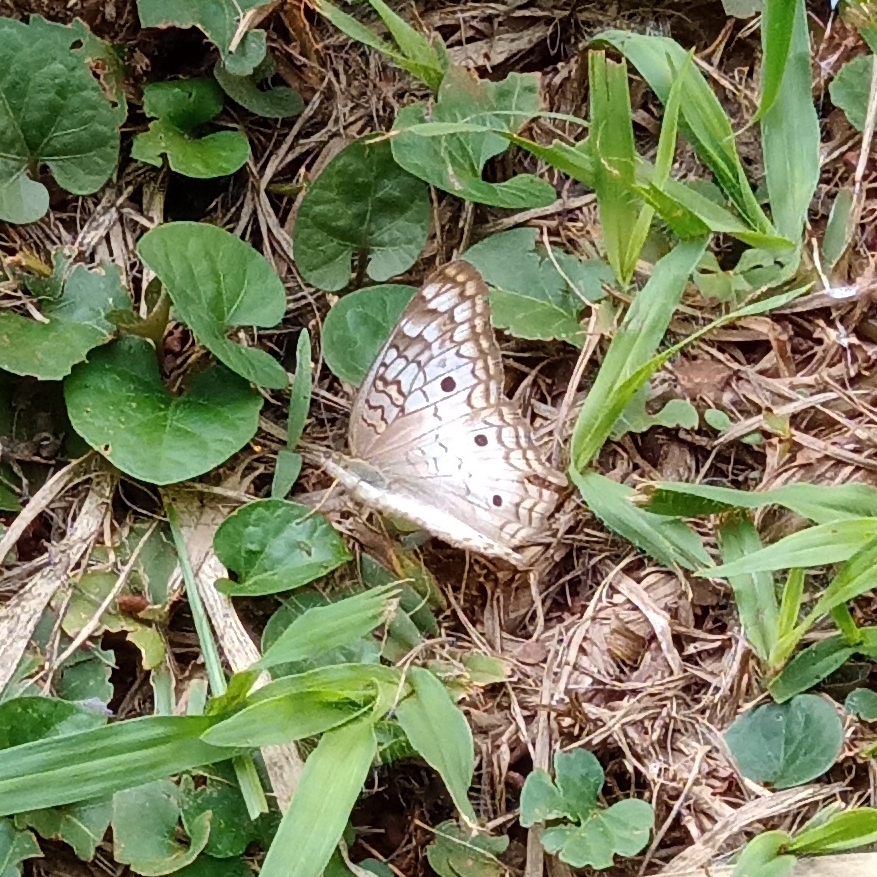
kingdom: Animalia
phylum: Arthropoda
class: Insecta
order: Lepidoptera
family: Nymphalidae
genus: Anartia
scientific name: Anartia jatrophae
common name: White peacock
